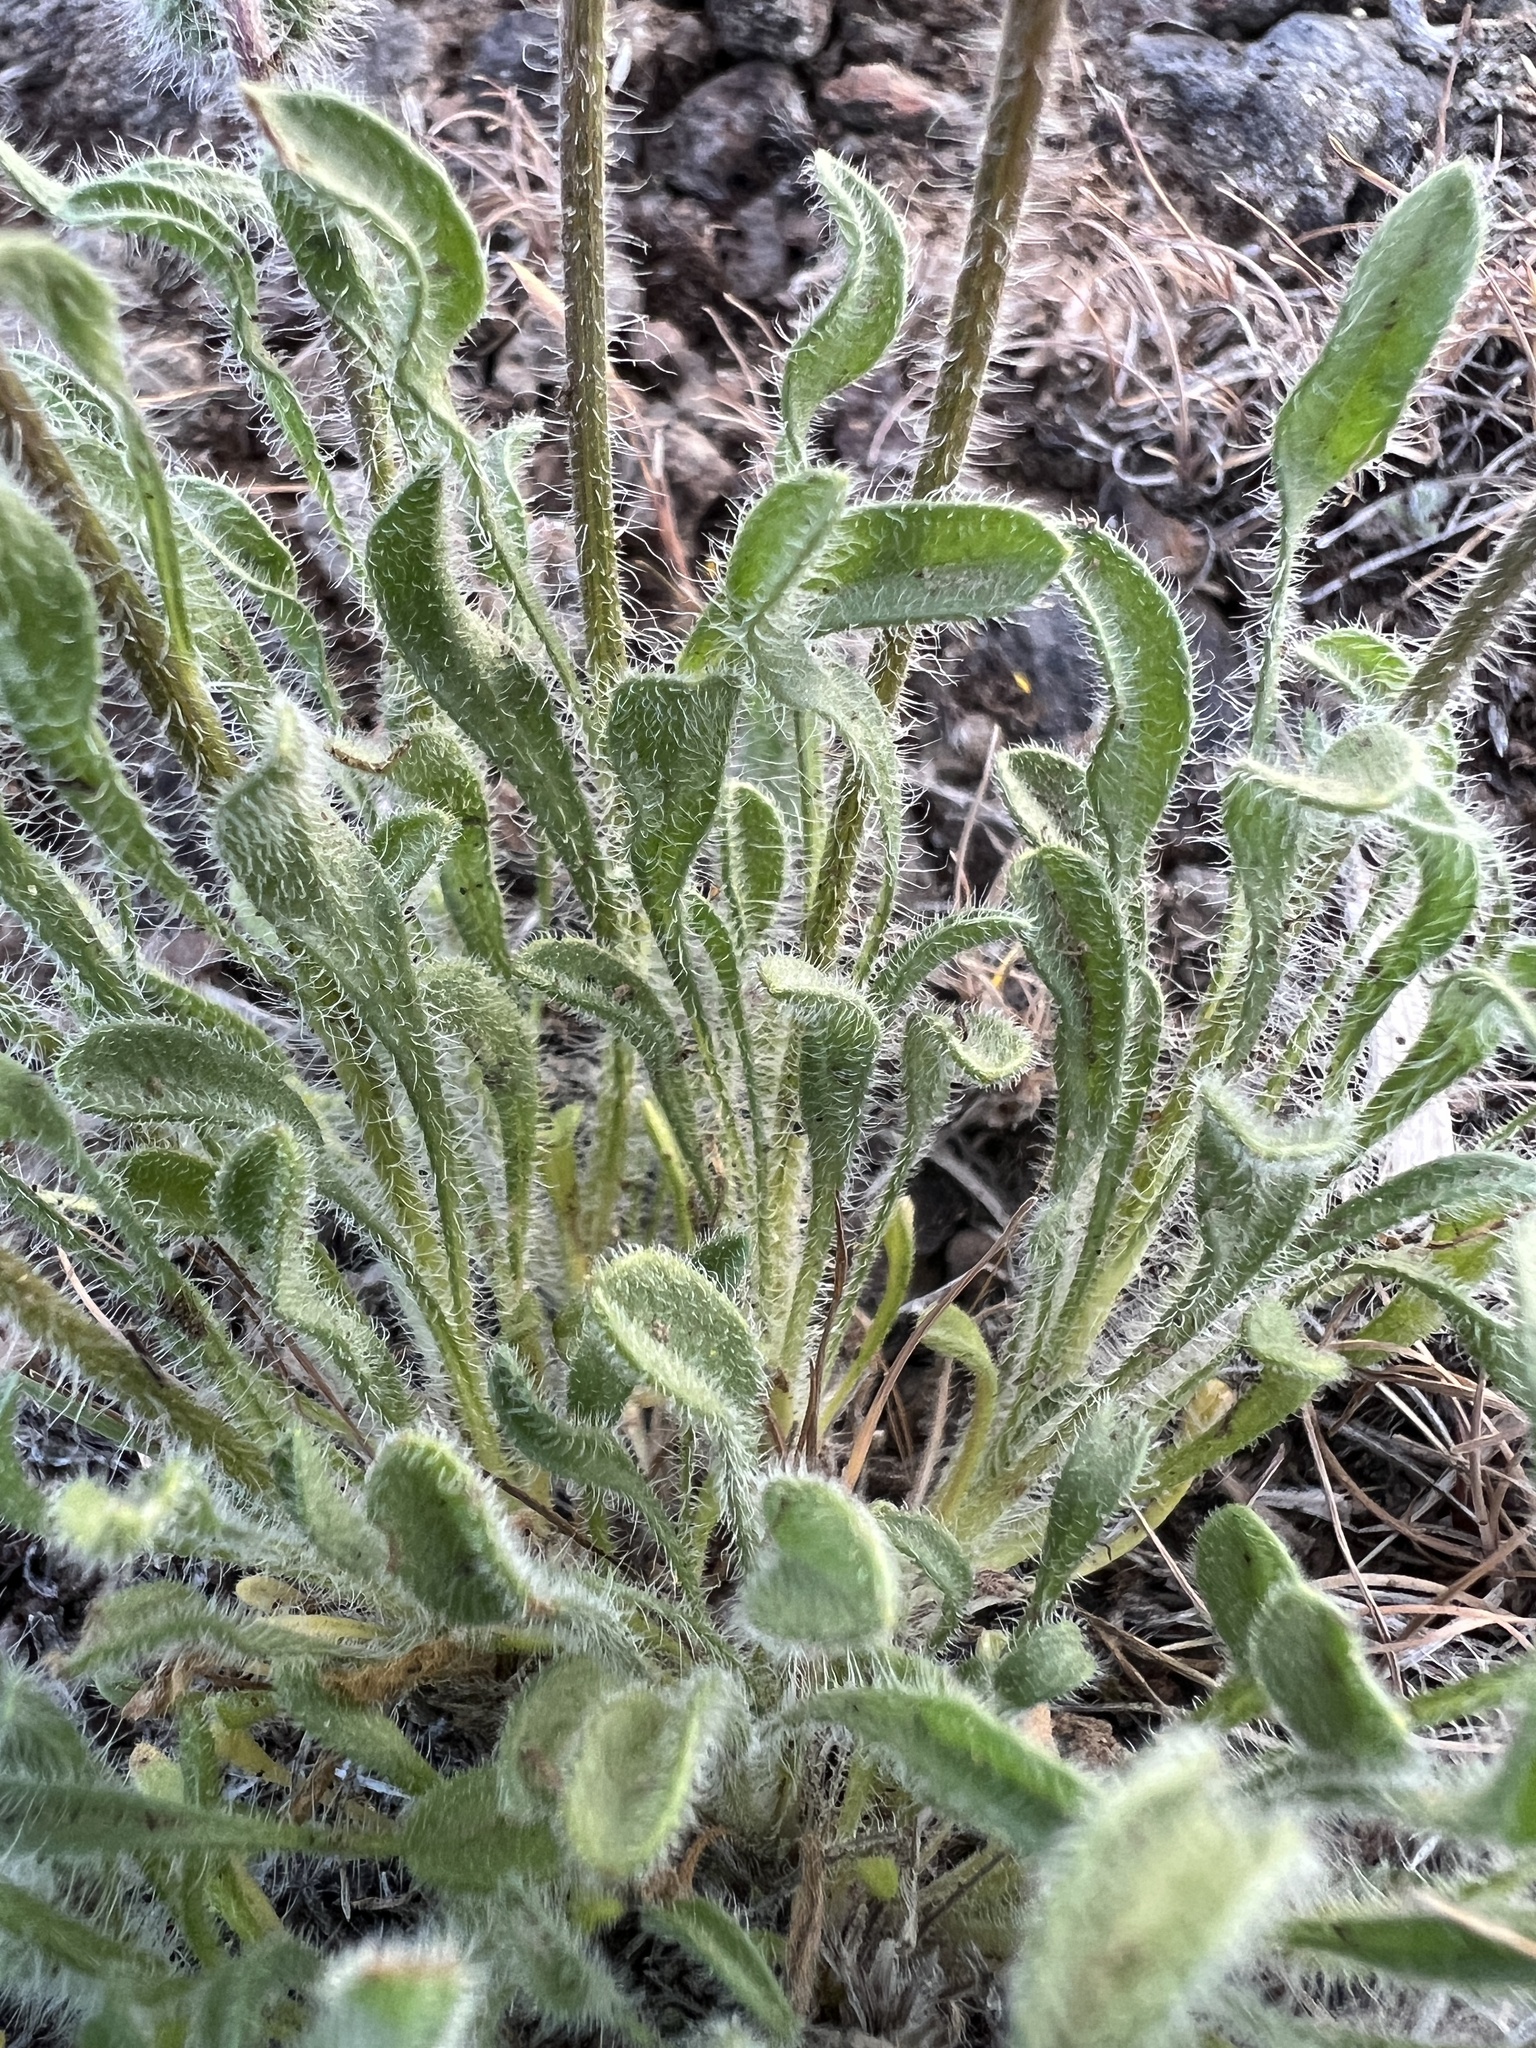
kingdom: Plantae
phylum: Tracheophyta
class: Magnoliopsida
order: Asterales
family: Asteraceae
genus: Erigeron
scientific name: Erigeron poliospermus
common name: Cushion fleabane
